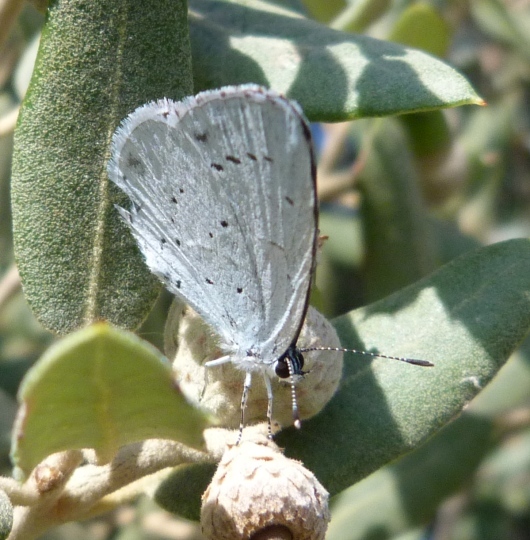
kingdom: Animalia
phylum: Arthropoda
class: Insecta
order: Lepidoptera
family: Lycaenidae
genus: Celastrina
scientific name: Celastrina argiolus
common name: Holly blue
